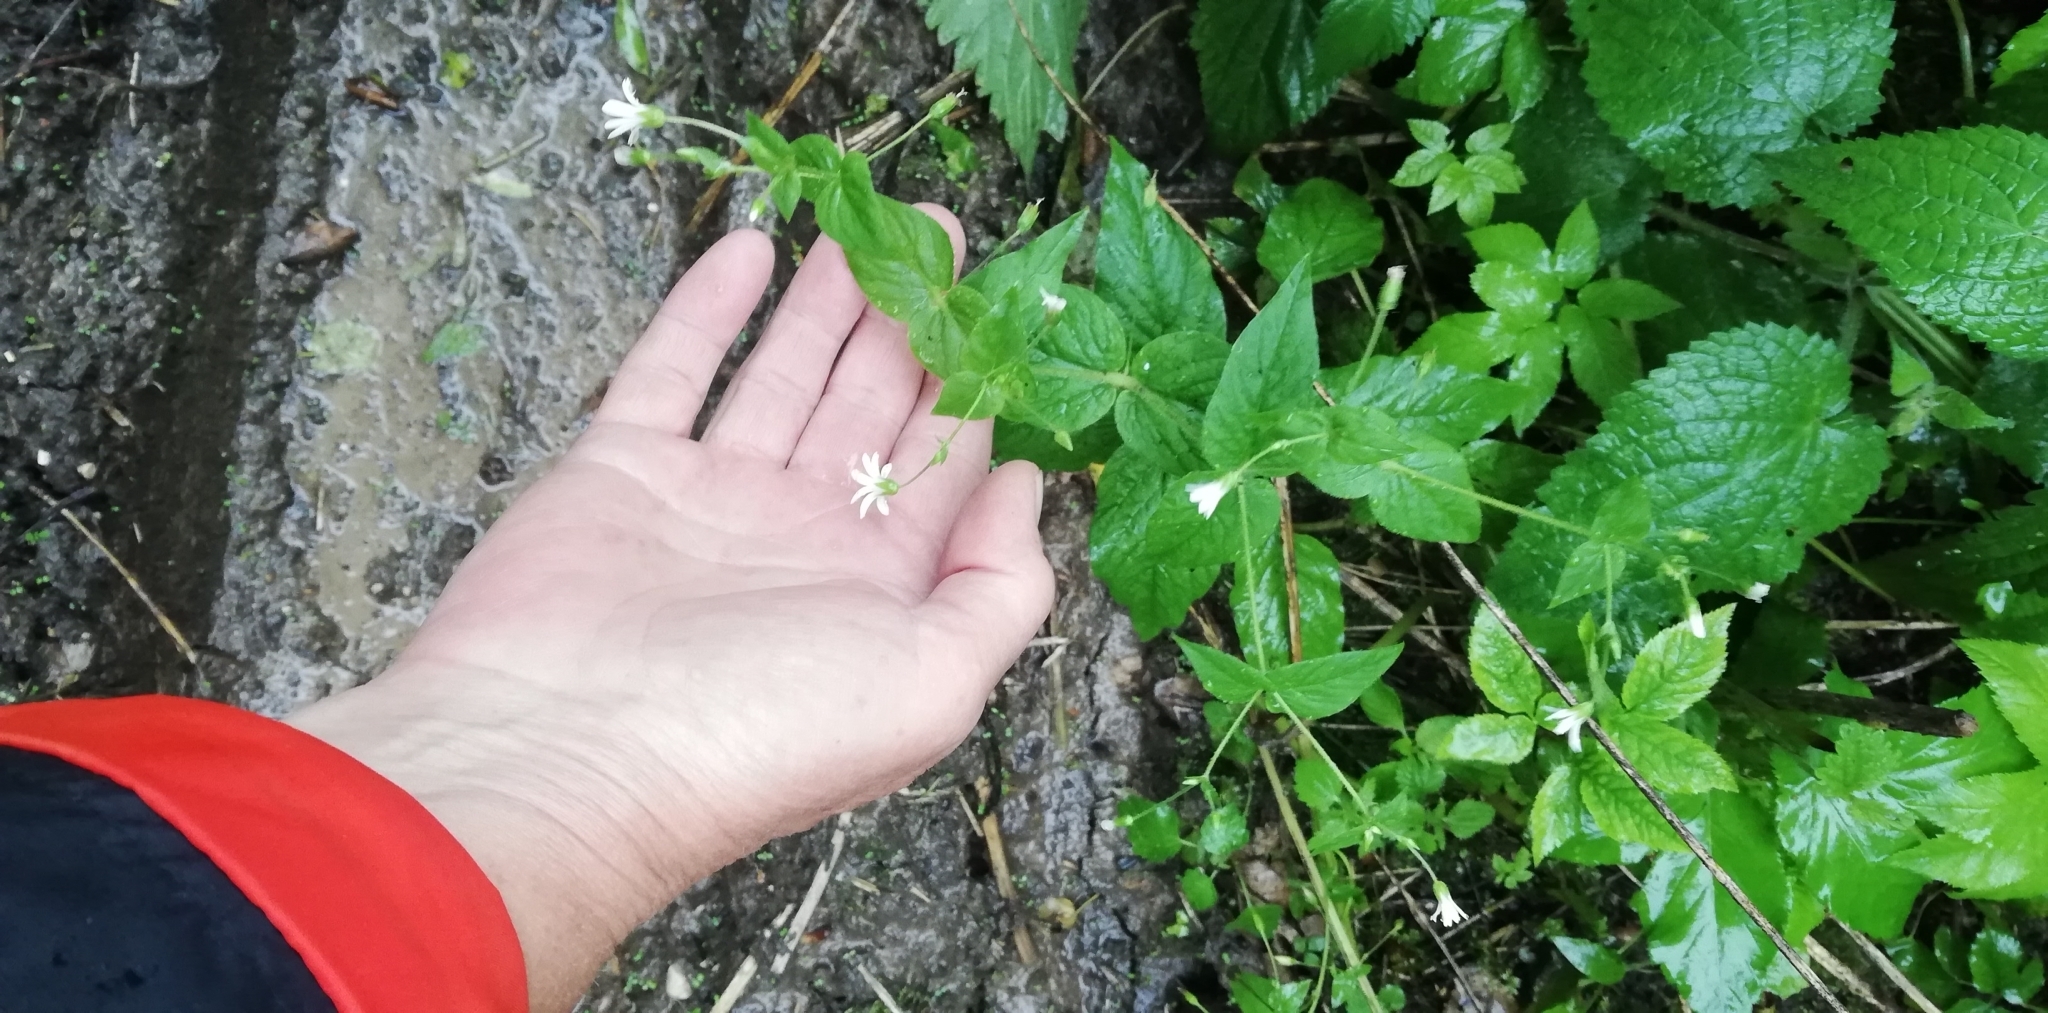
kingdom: Plantae
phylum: Tracheophyta
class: Magnoliopsida
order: Caryophyllales
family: Caryophyllaceae
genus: Stellaria
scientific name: Stellaria nemorum
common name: Wood stitchwort
